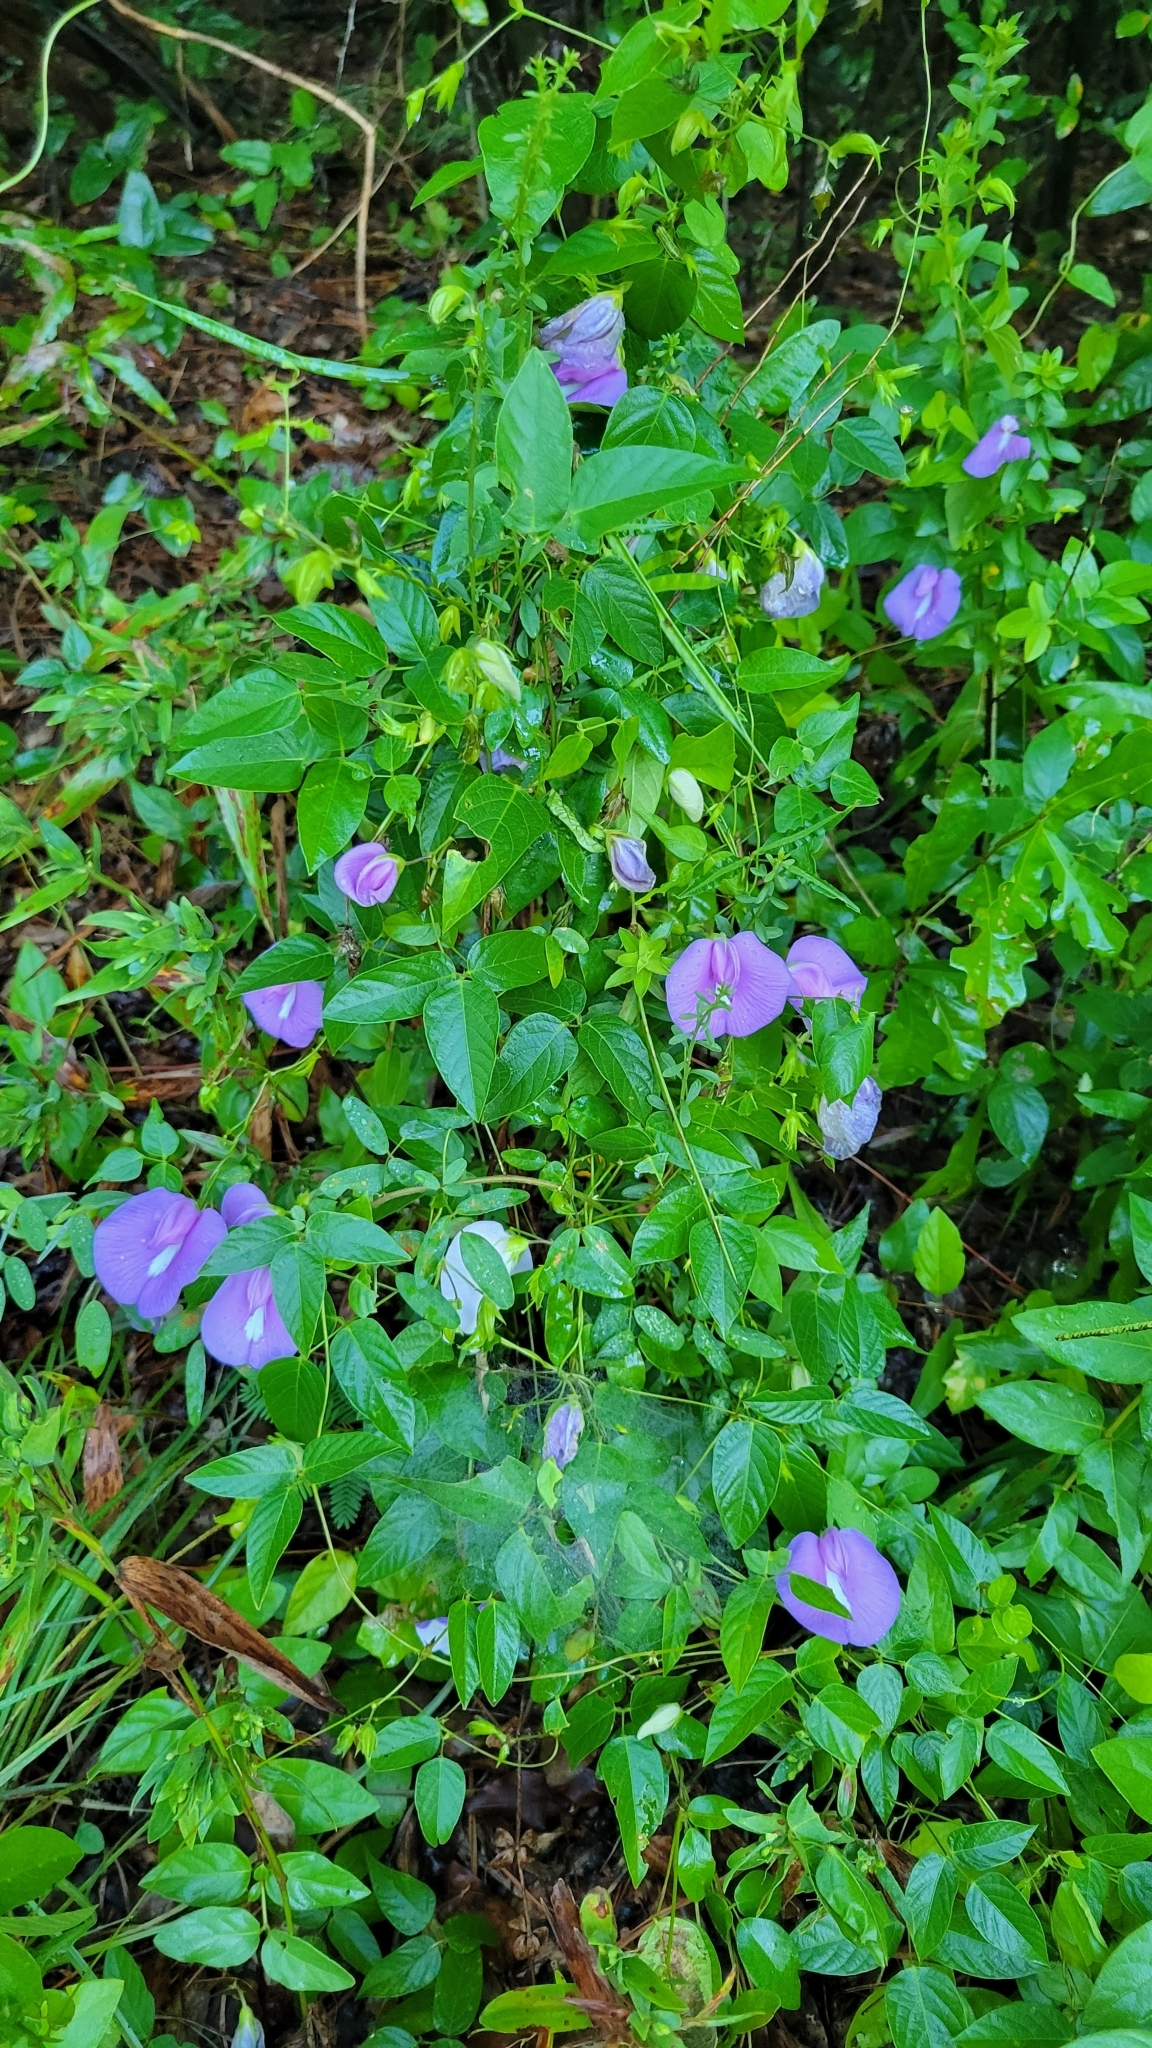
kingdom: Plantae
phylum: Tracheophyta
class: Magnoliopsida
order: Fabales
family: Fabaceae
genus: Centrosema
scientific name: Centrosema virginianum
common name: Butterfly-pea
